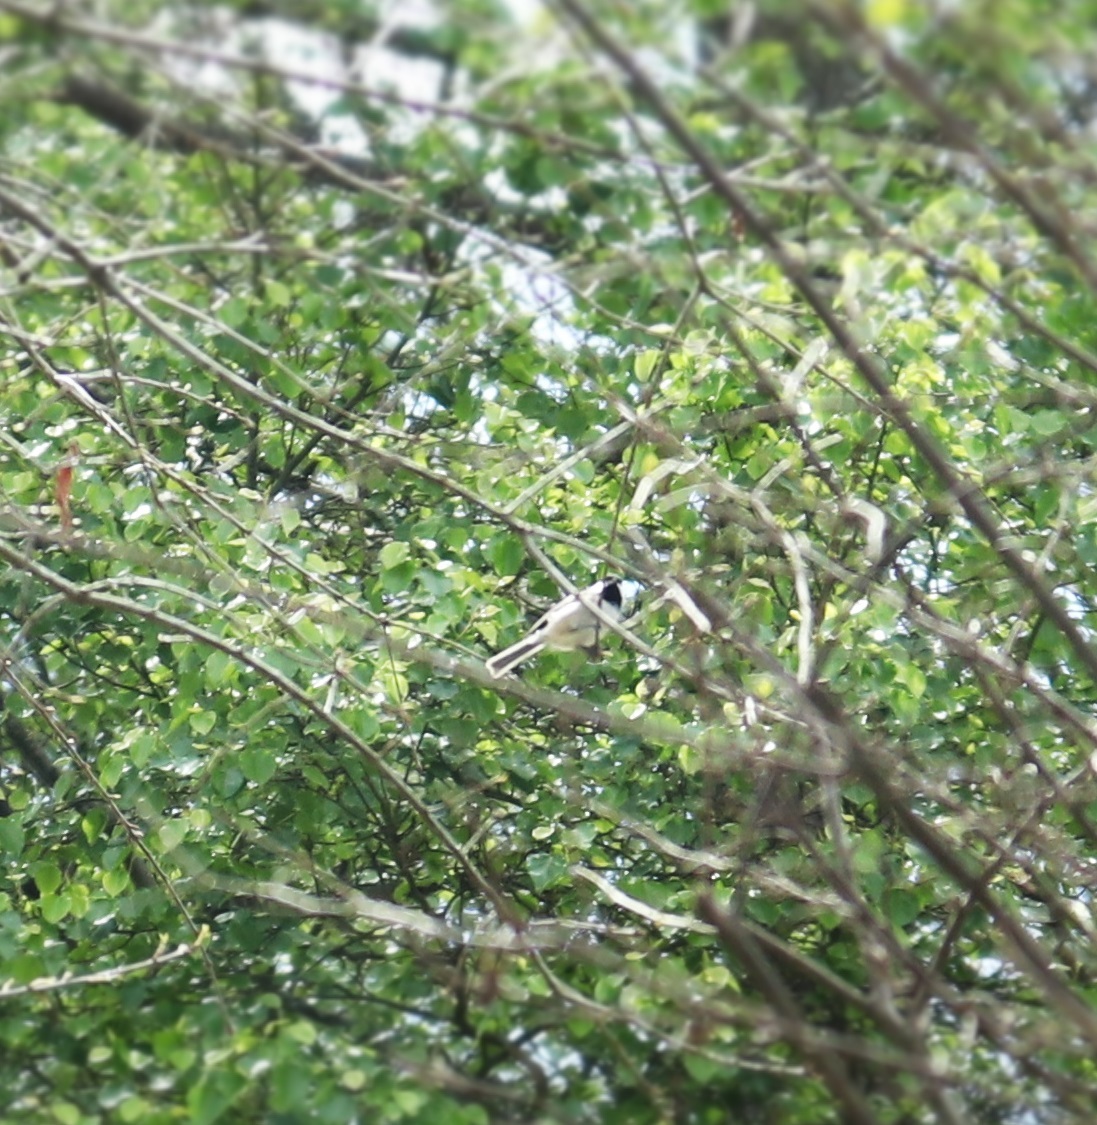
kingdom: Animalia
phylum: Chordata
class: Aves
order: Passeriformes
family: Paridae
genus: Poecile
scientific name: Poecile carolinensis
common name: Carolina chickadee
